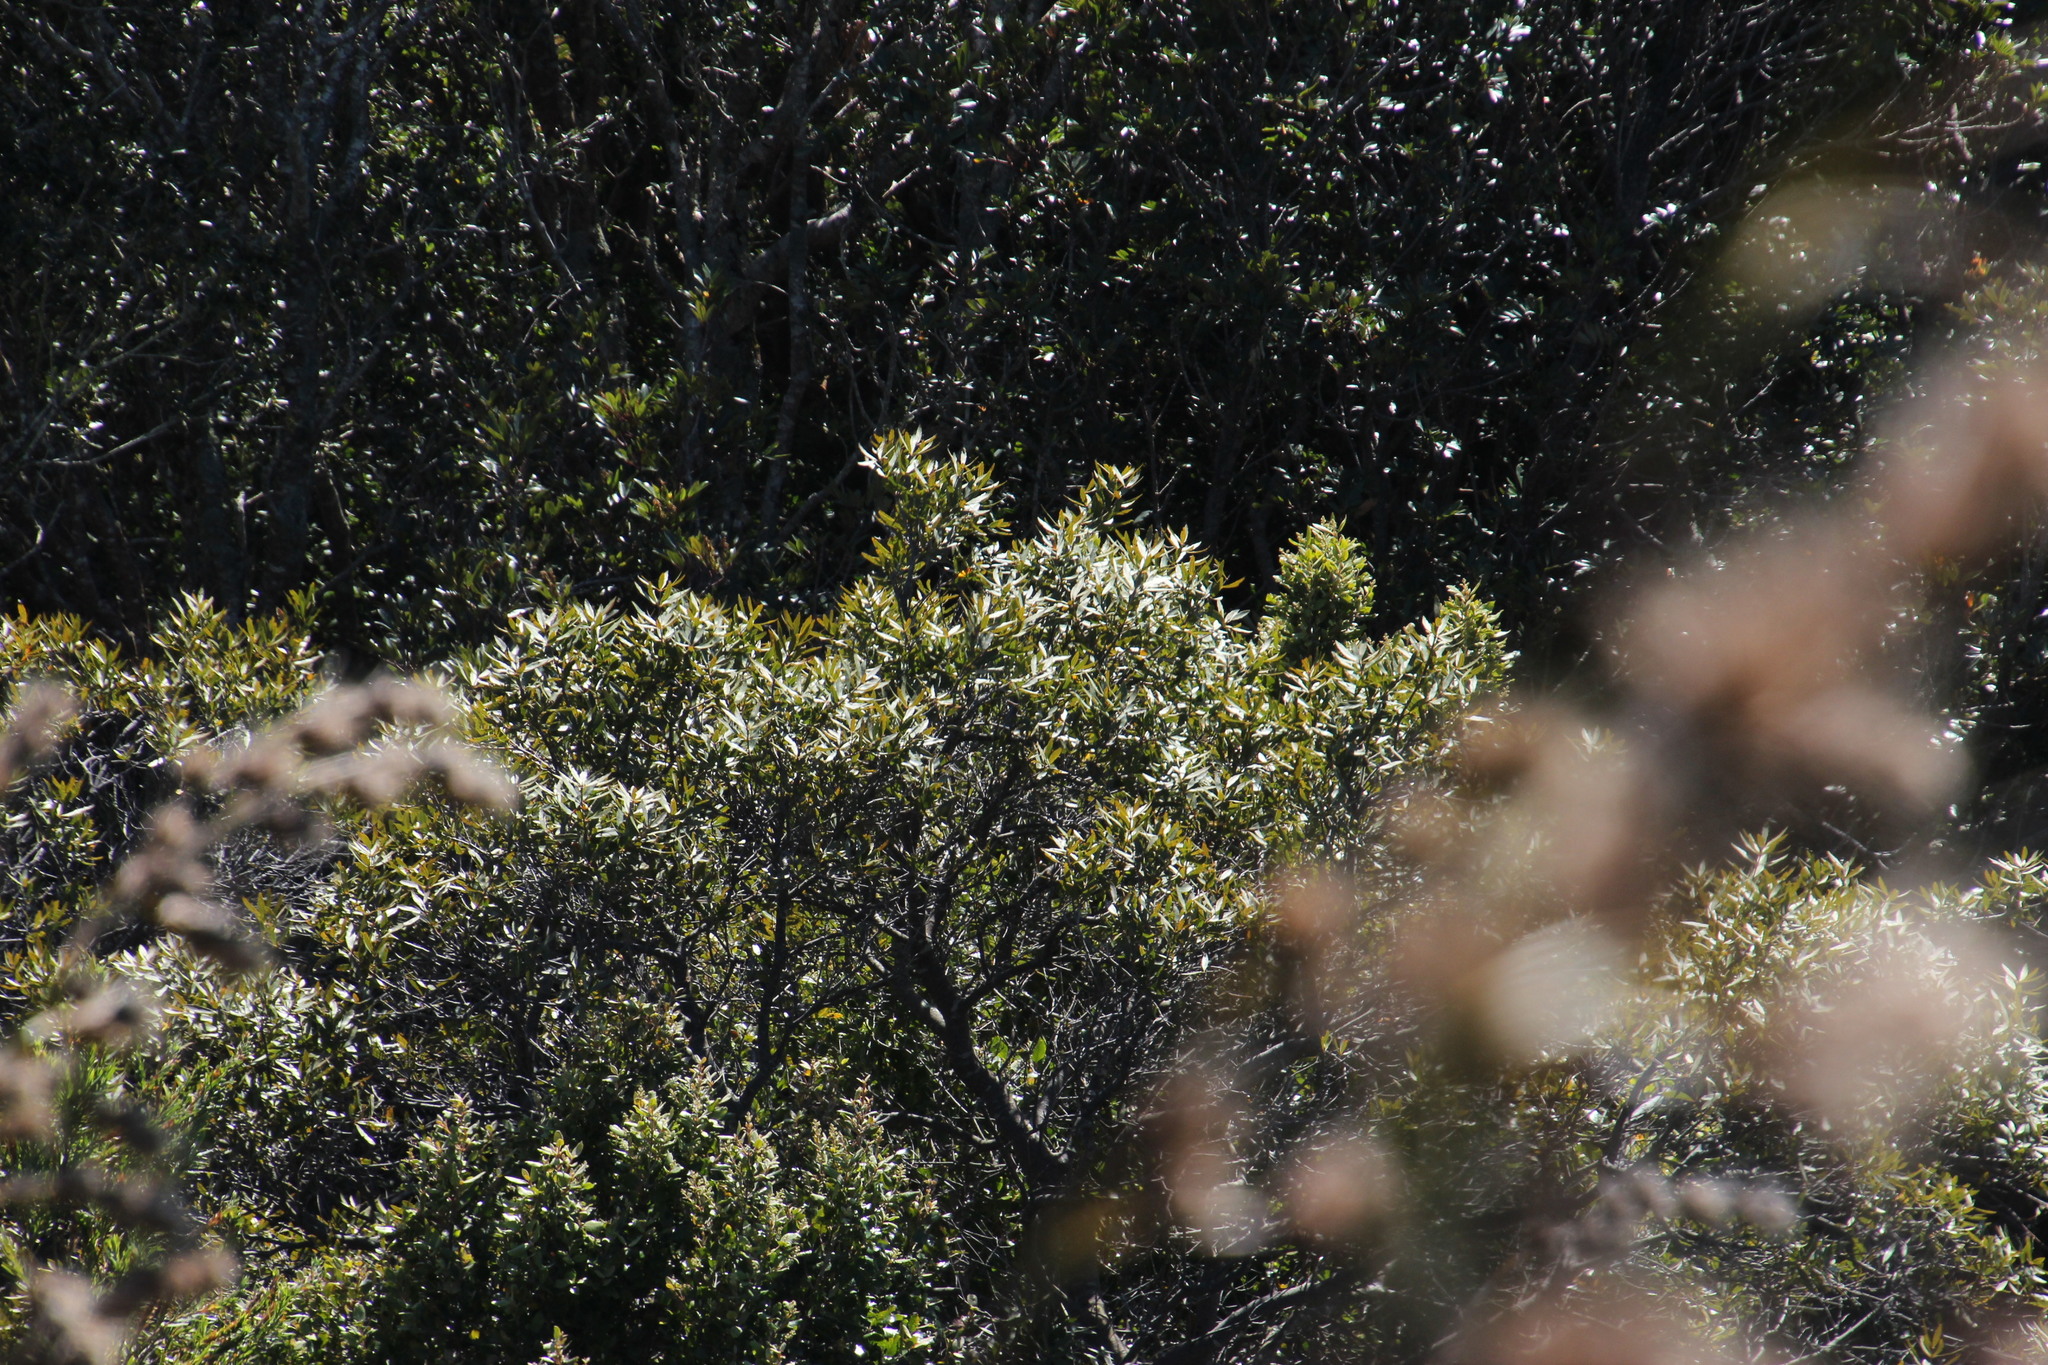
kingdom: Plantae
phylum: Tracheophyta
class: Magnoliopsida
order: Proteales
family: Proteaceae
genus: Brabejum
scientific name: Brabejum stellatifolium
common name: Wild almond
